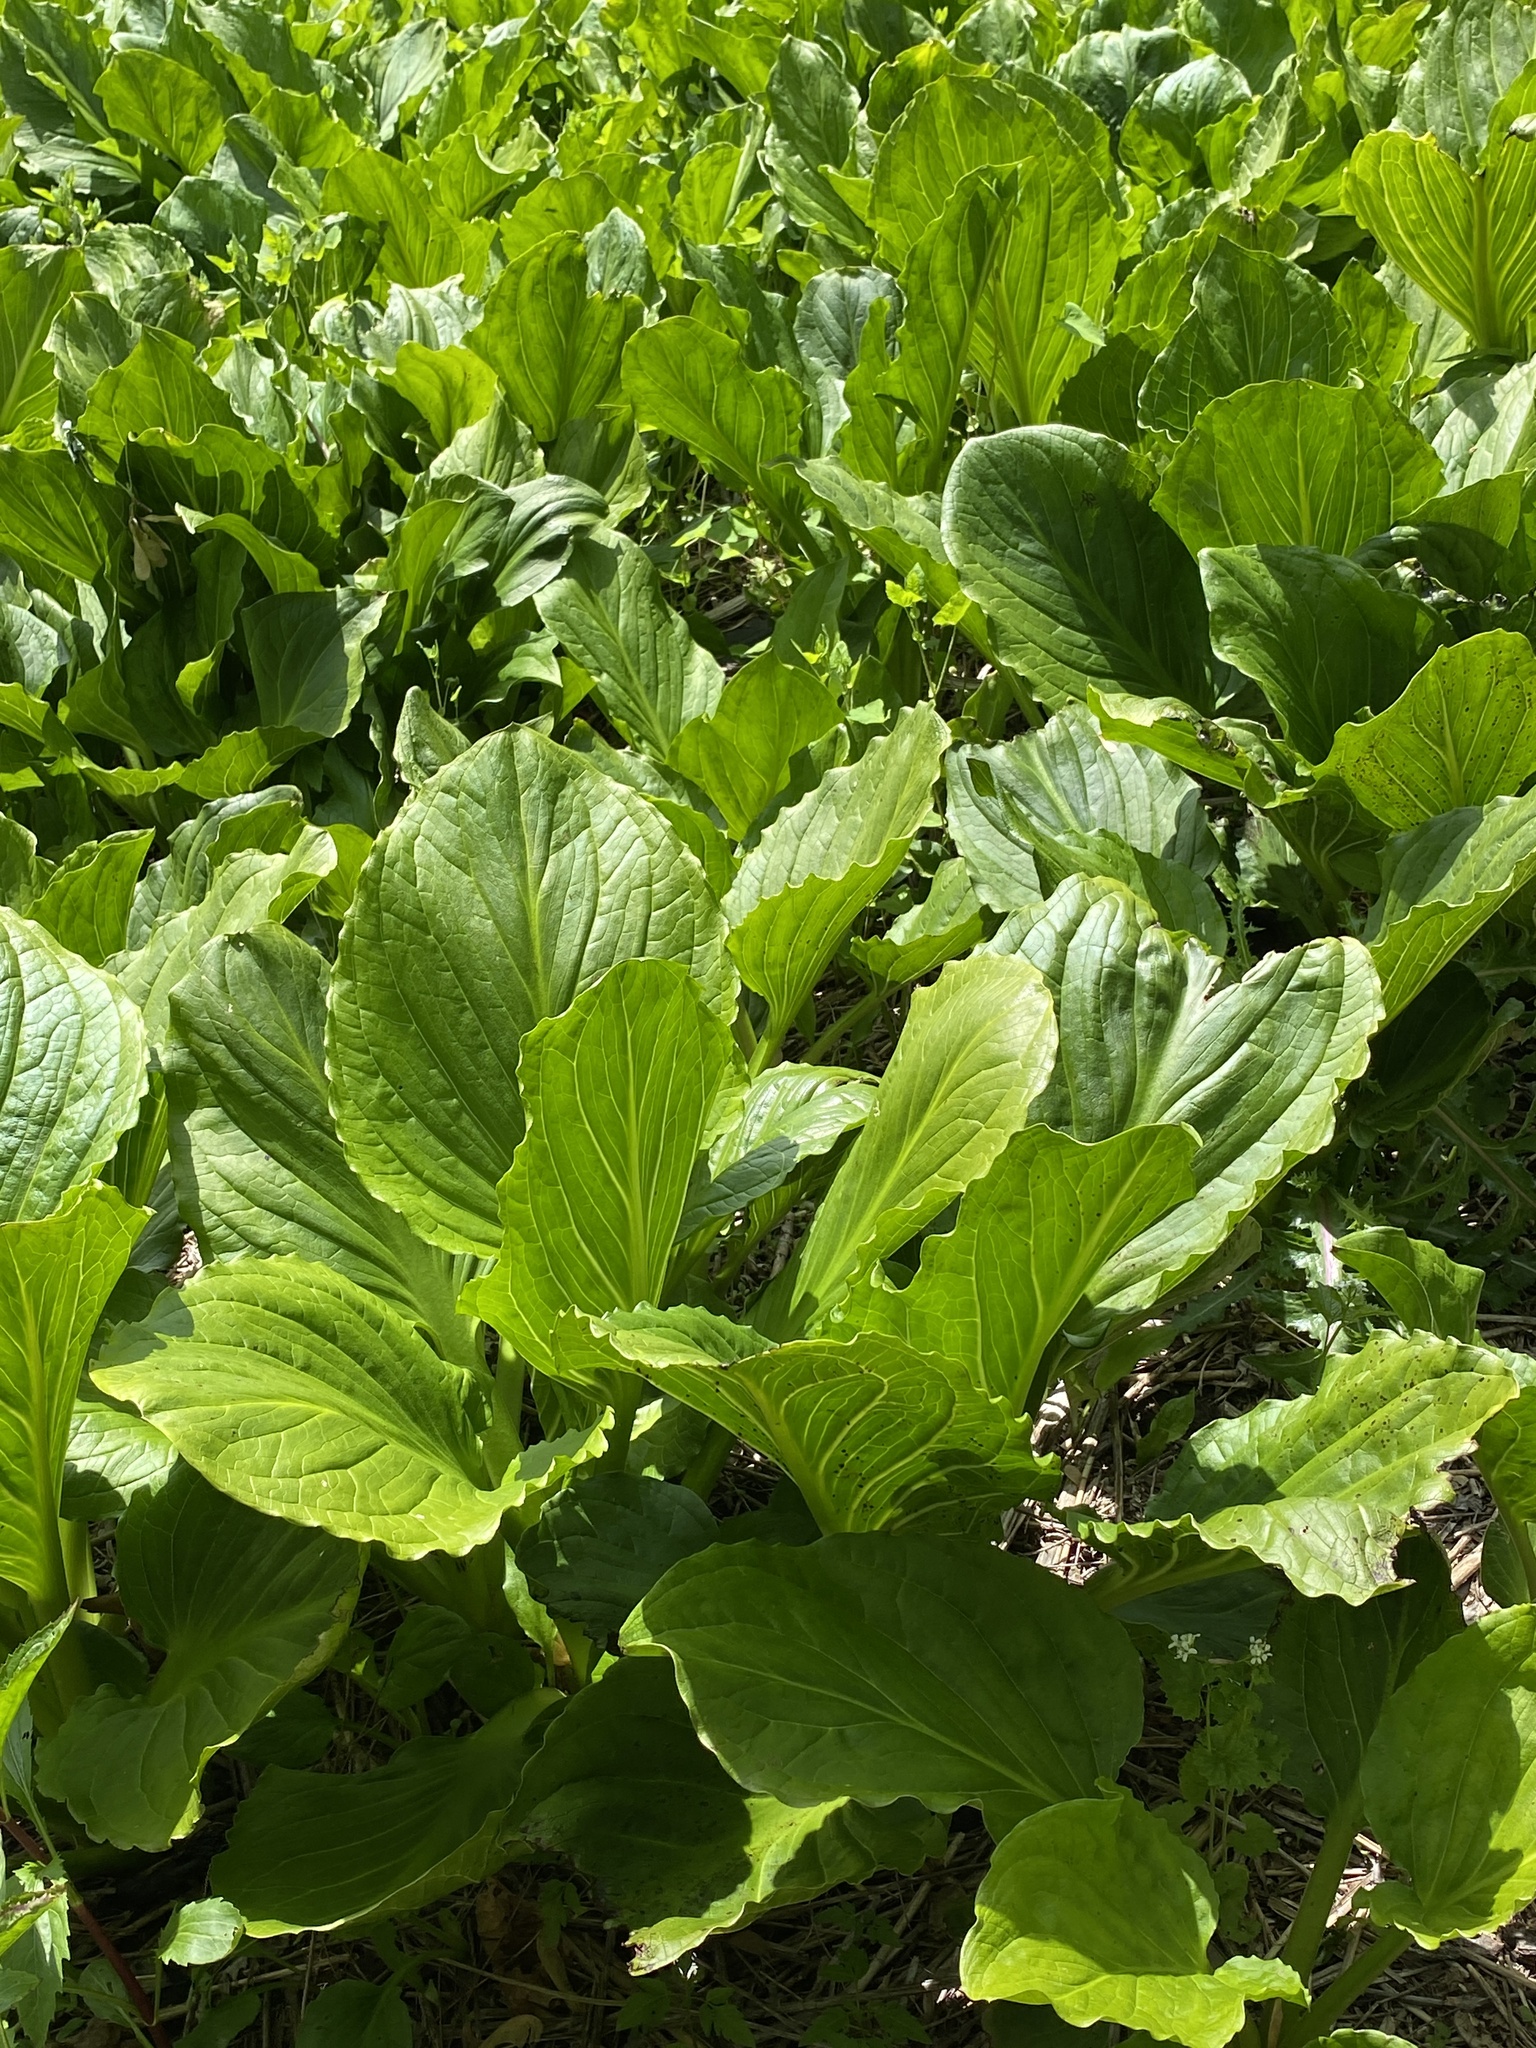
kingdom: Plantae
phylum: Tracheophyta
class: Liliopsida
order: Alismatales
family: Araceae
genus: Symplocarpus
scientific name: Symplocarpus foetidus
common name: Eastern skunk cabbage
